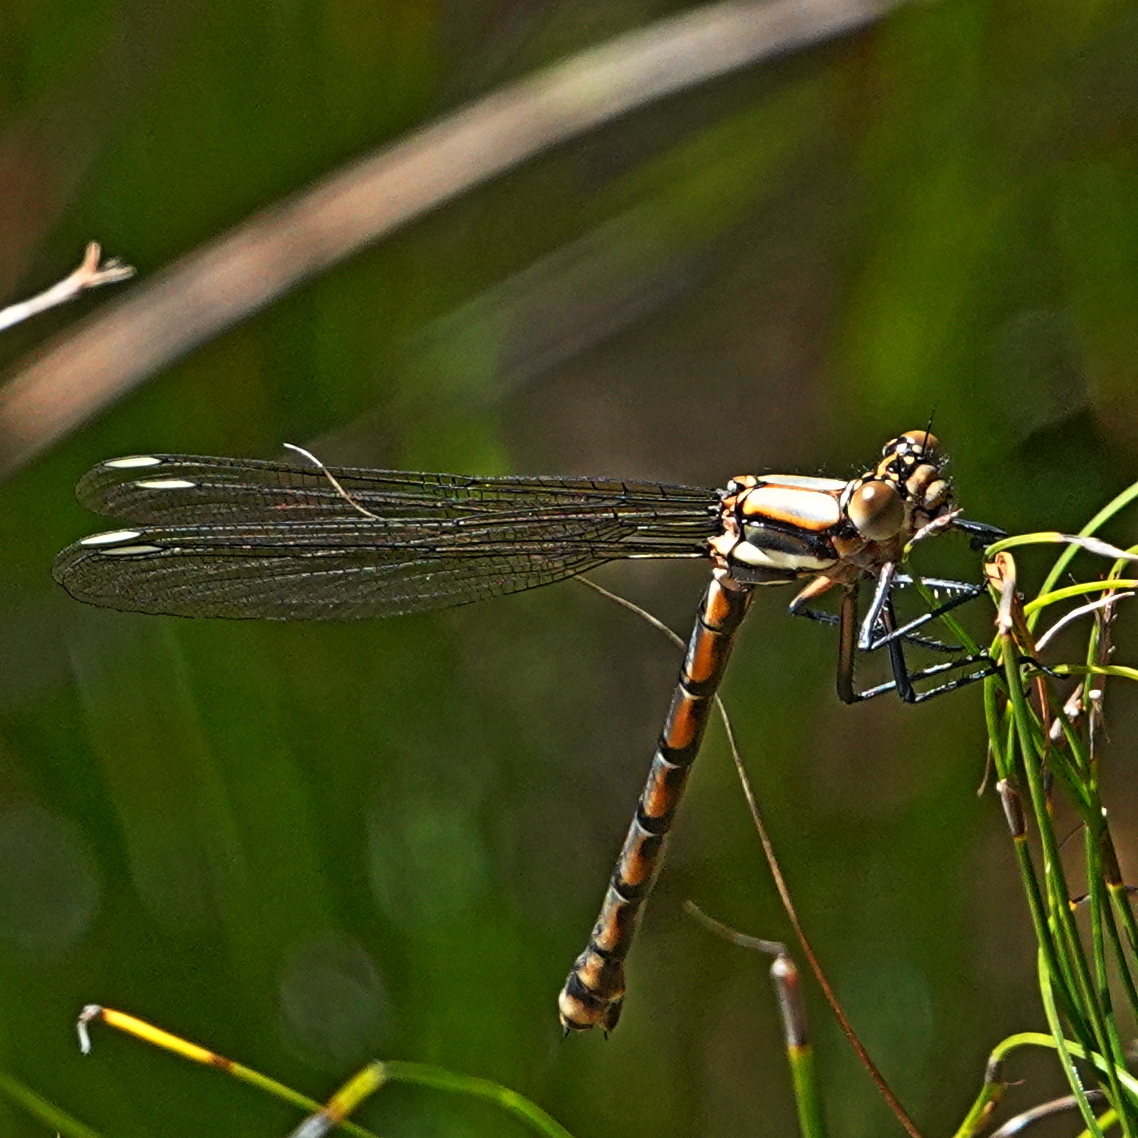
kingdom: Animalia
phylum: Arthropoda
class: Insecta
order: Odonata
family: Lestoideidae
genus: Diphlebia
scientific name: Diphlebia lestoides
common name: Whitewater rockmaster
